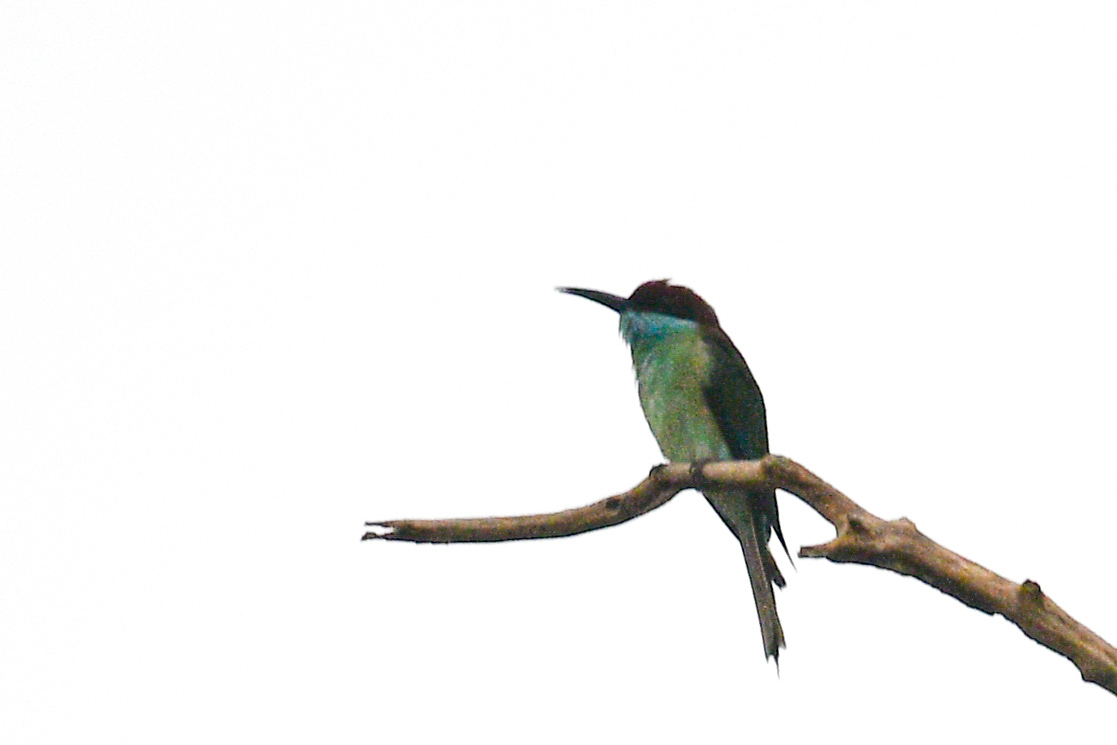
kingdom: Animalia
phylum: Chordata
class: Aves
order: Coraciiformes
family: Meropidae
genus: Merops
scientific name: Merops viridis
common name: Blue-throated bee-eater
